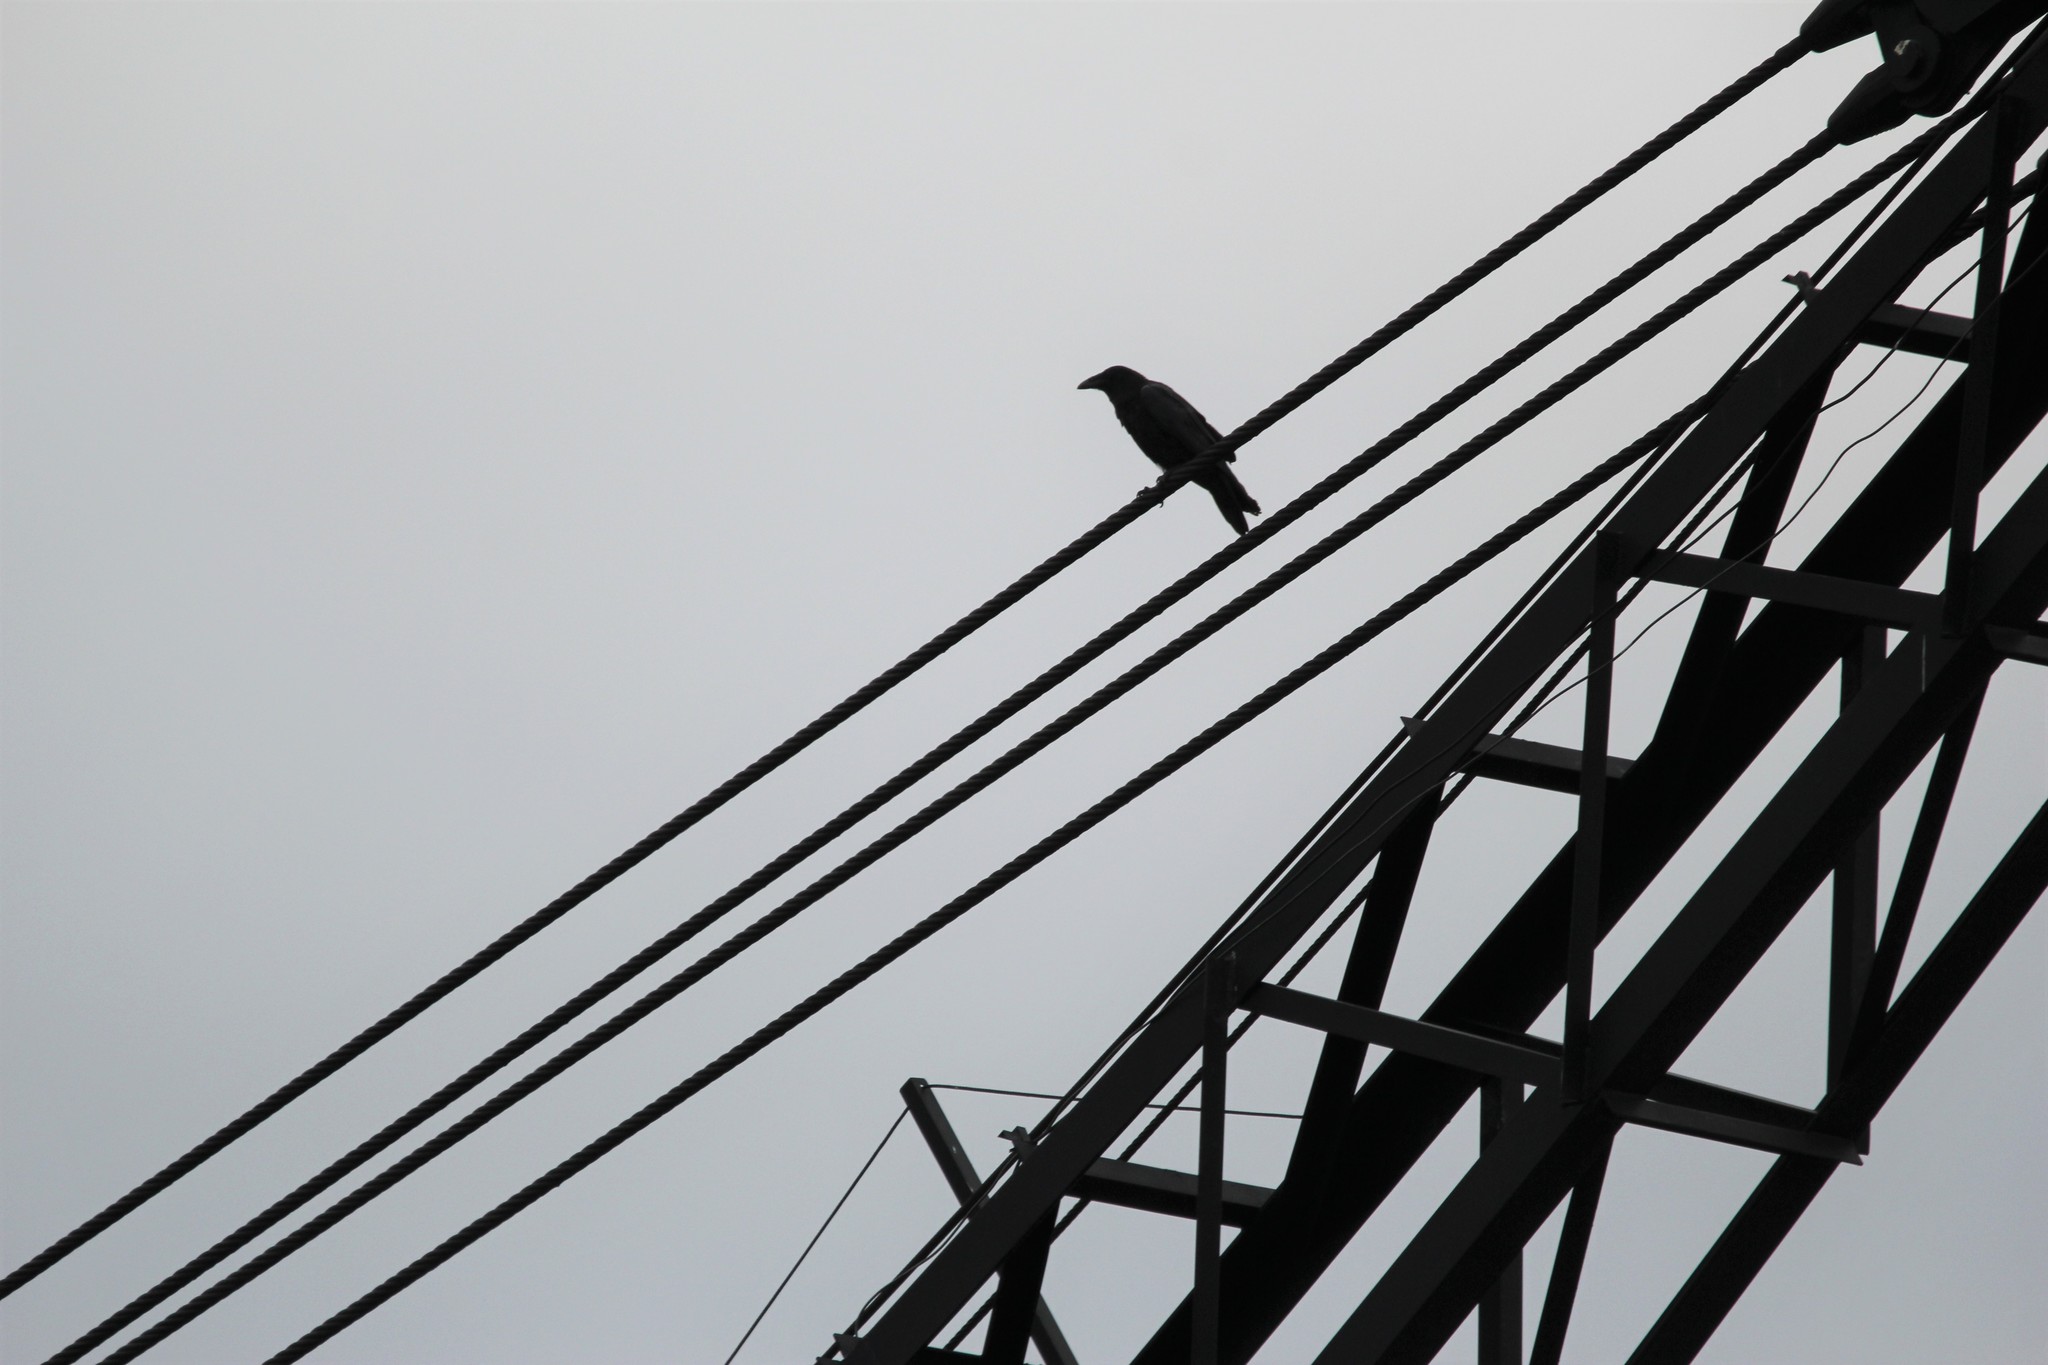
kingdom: Animalia
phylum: Chordata
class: Aves
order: Passeriformes
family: Corvidae
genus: Corvus
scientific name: Corvus corax
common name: Common raven
